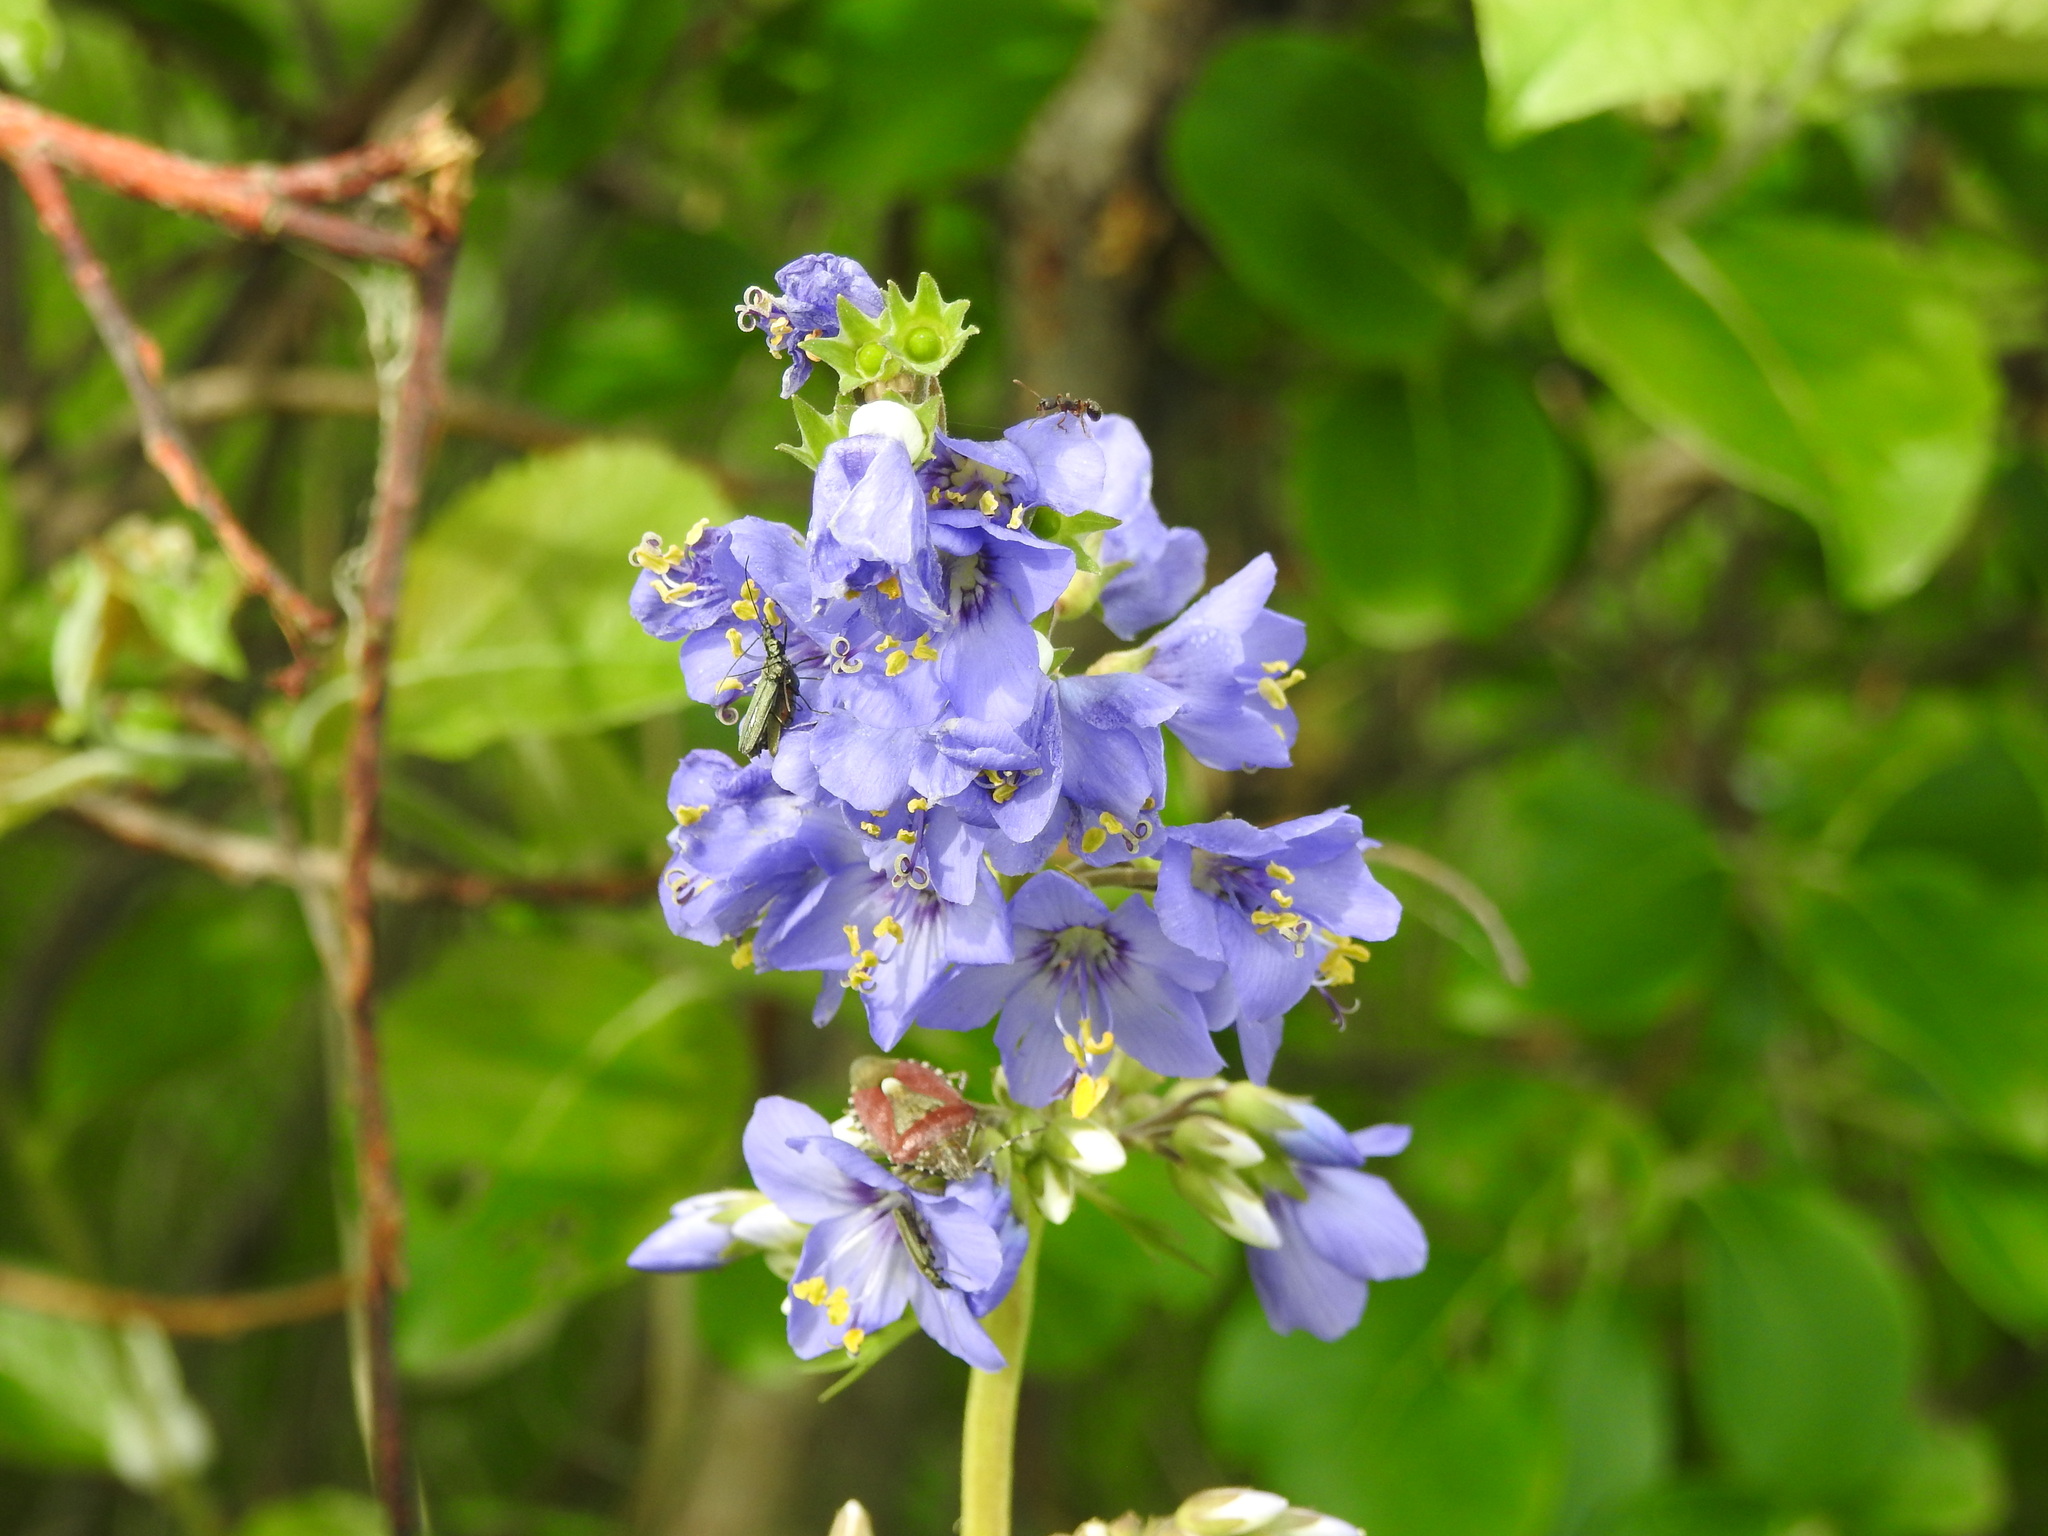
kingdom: Plantae
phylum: Tracheophyta
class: Magnoliopsida
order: Ericales
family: Polemoniaceae
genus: Polemonium
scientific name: Polemonium caeruleum
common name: Jacob's-ladder
